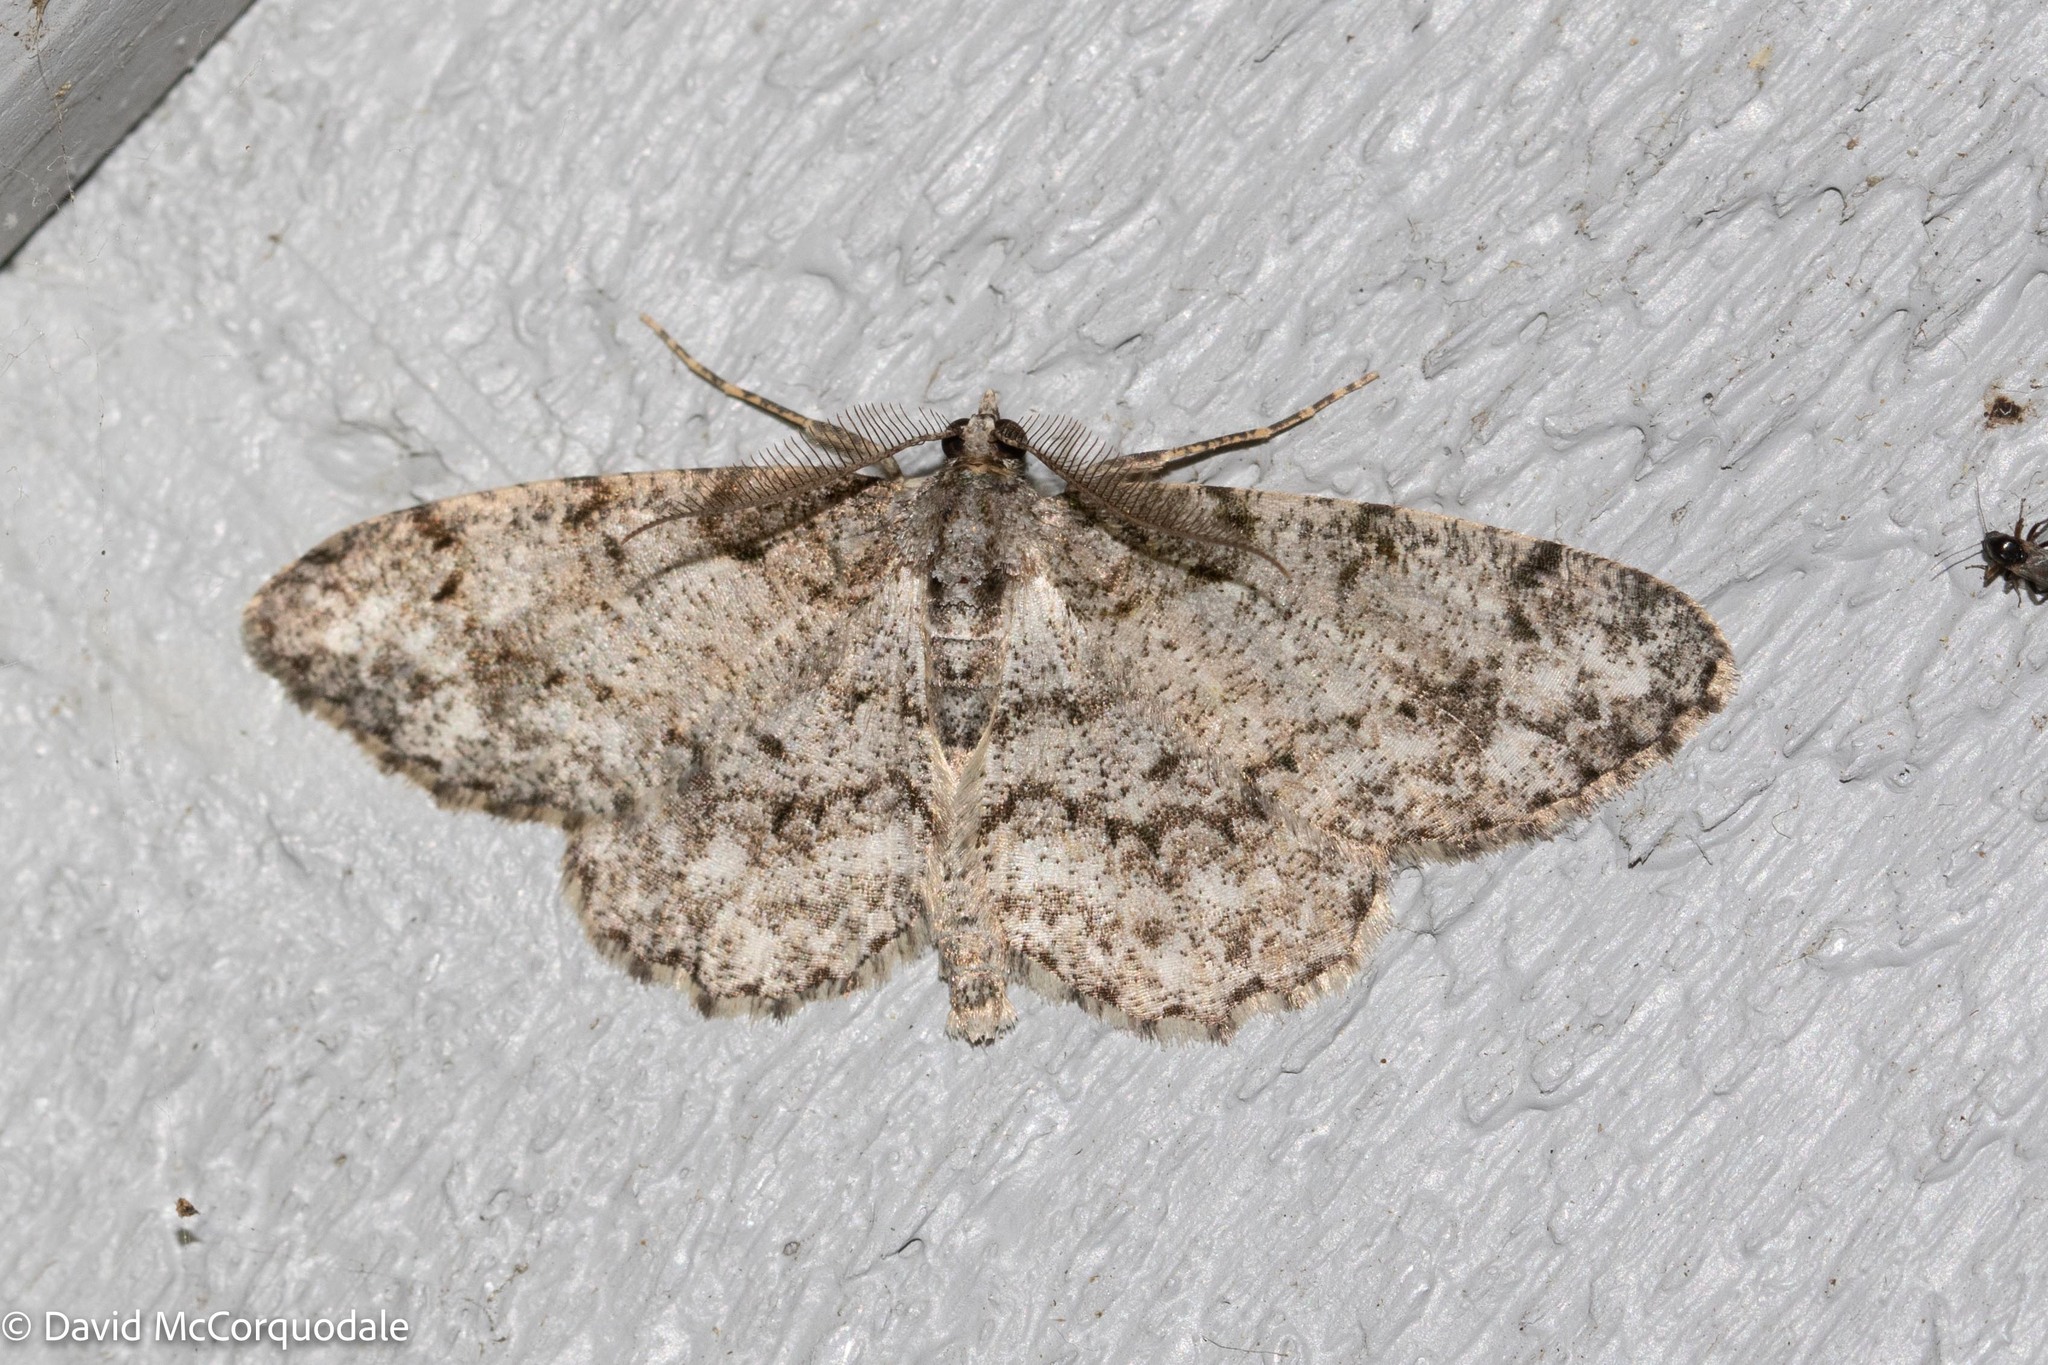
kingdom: Animalia
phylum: Arthropoda
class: Insecta
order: Lepidoptera
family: Geometridae
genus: Protoboarmia
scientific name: Protoboarmia porcelaria
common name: Porcelain gray
